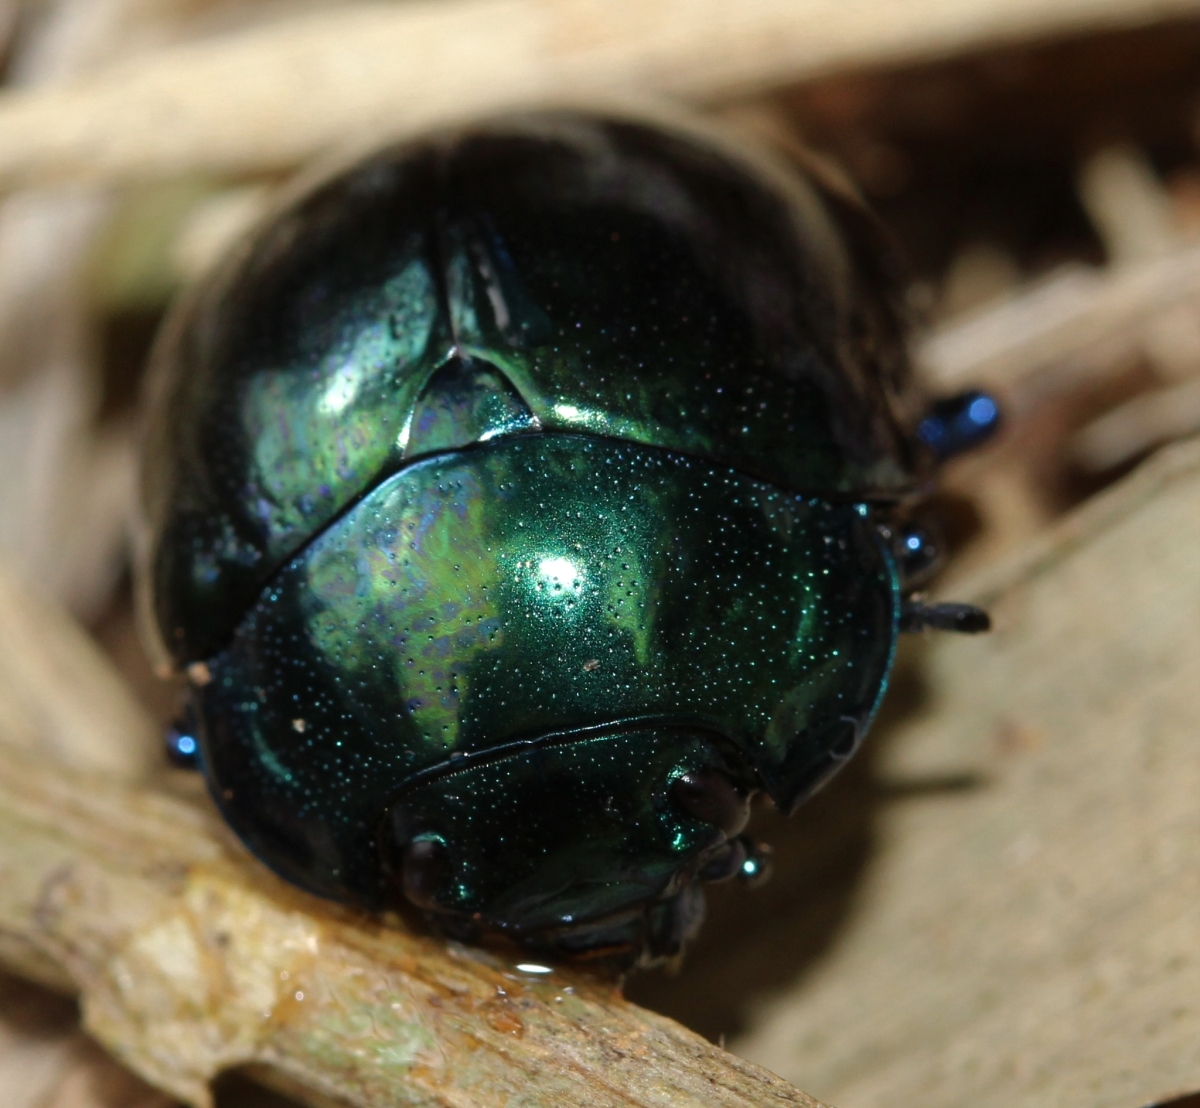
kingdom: Animalia
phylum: Arthropoda
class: Insecta
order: Coleoptera
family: Chrysomelidae
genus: Platyphora
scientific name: Platyphora
